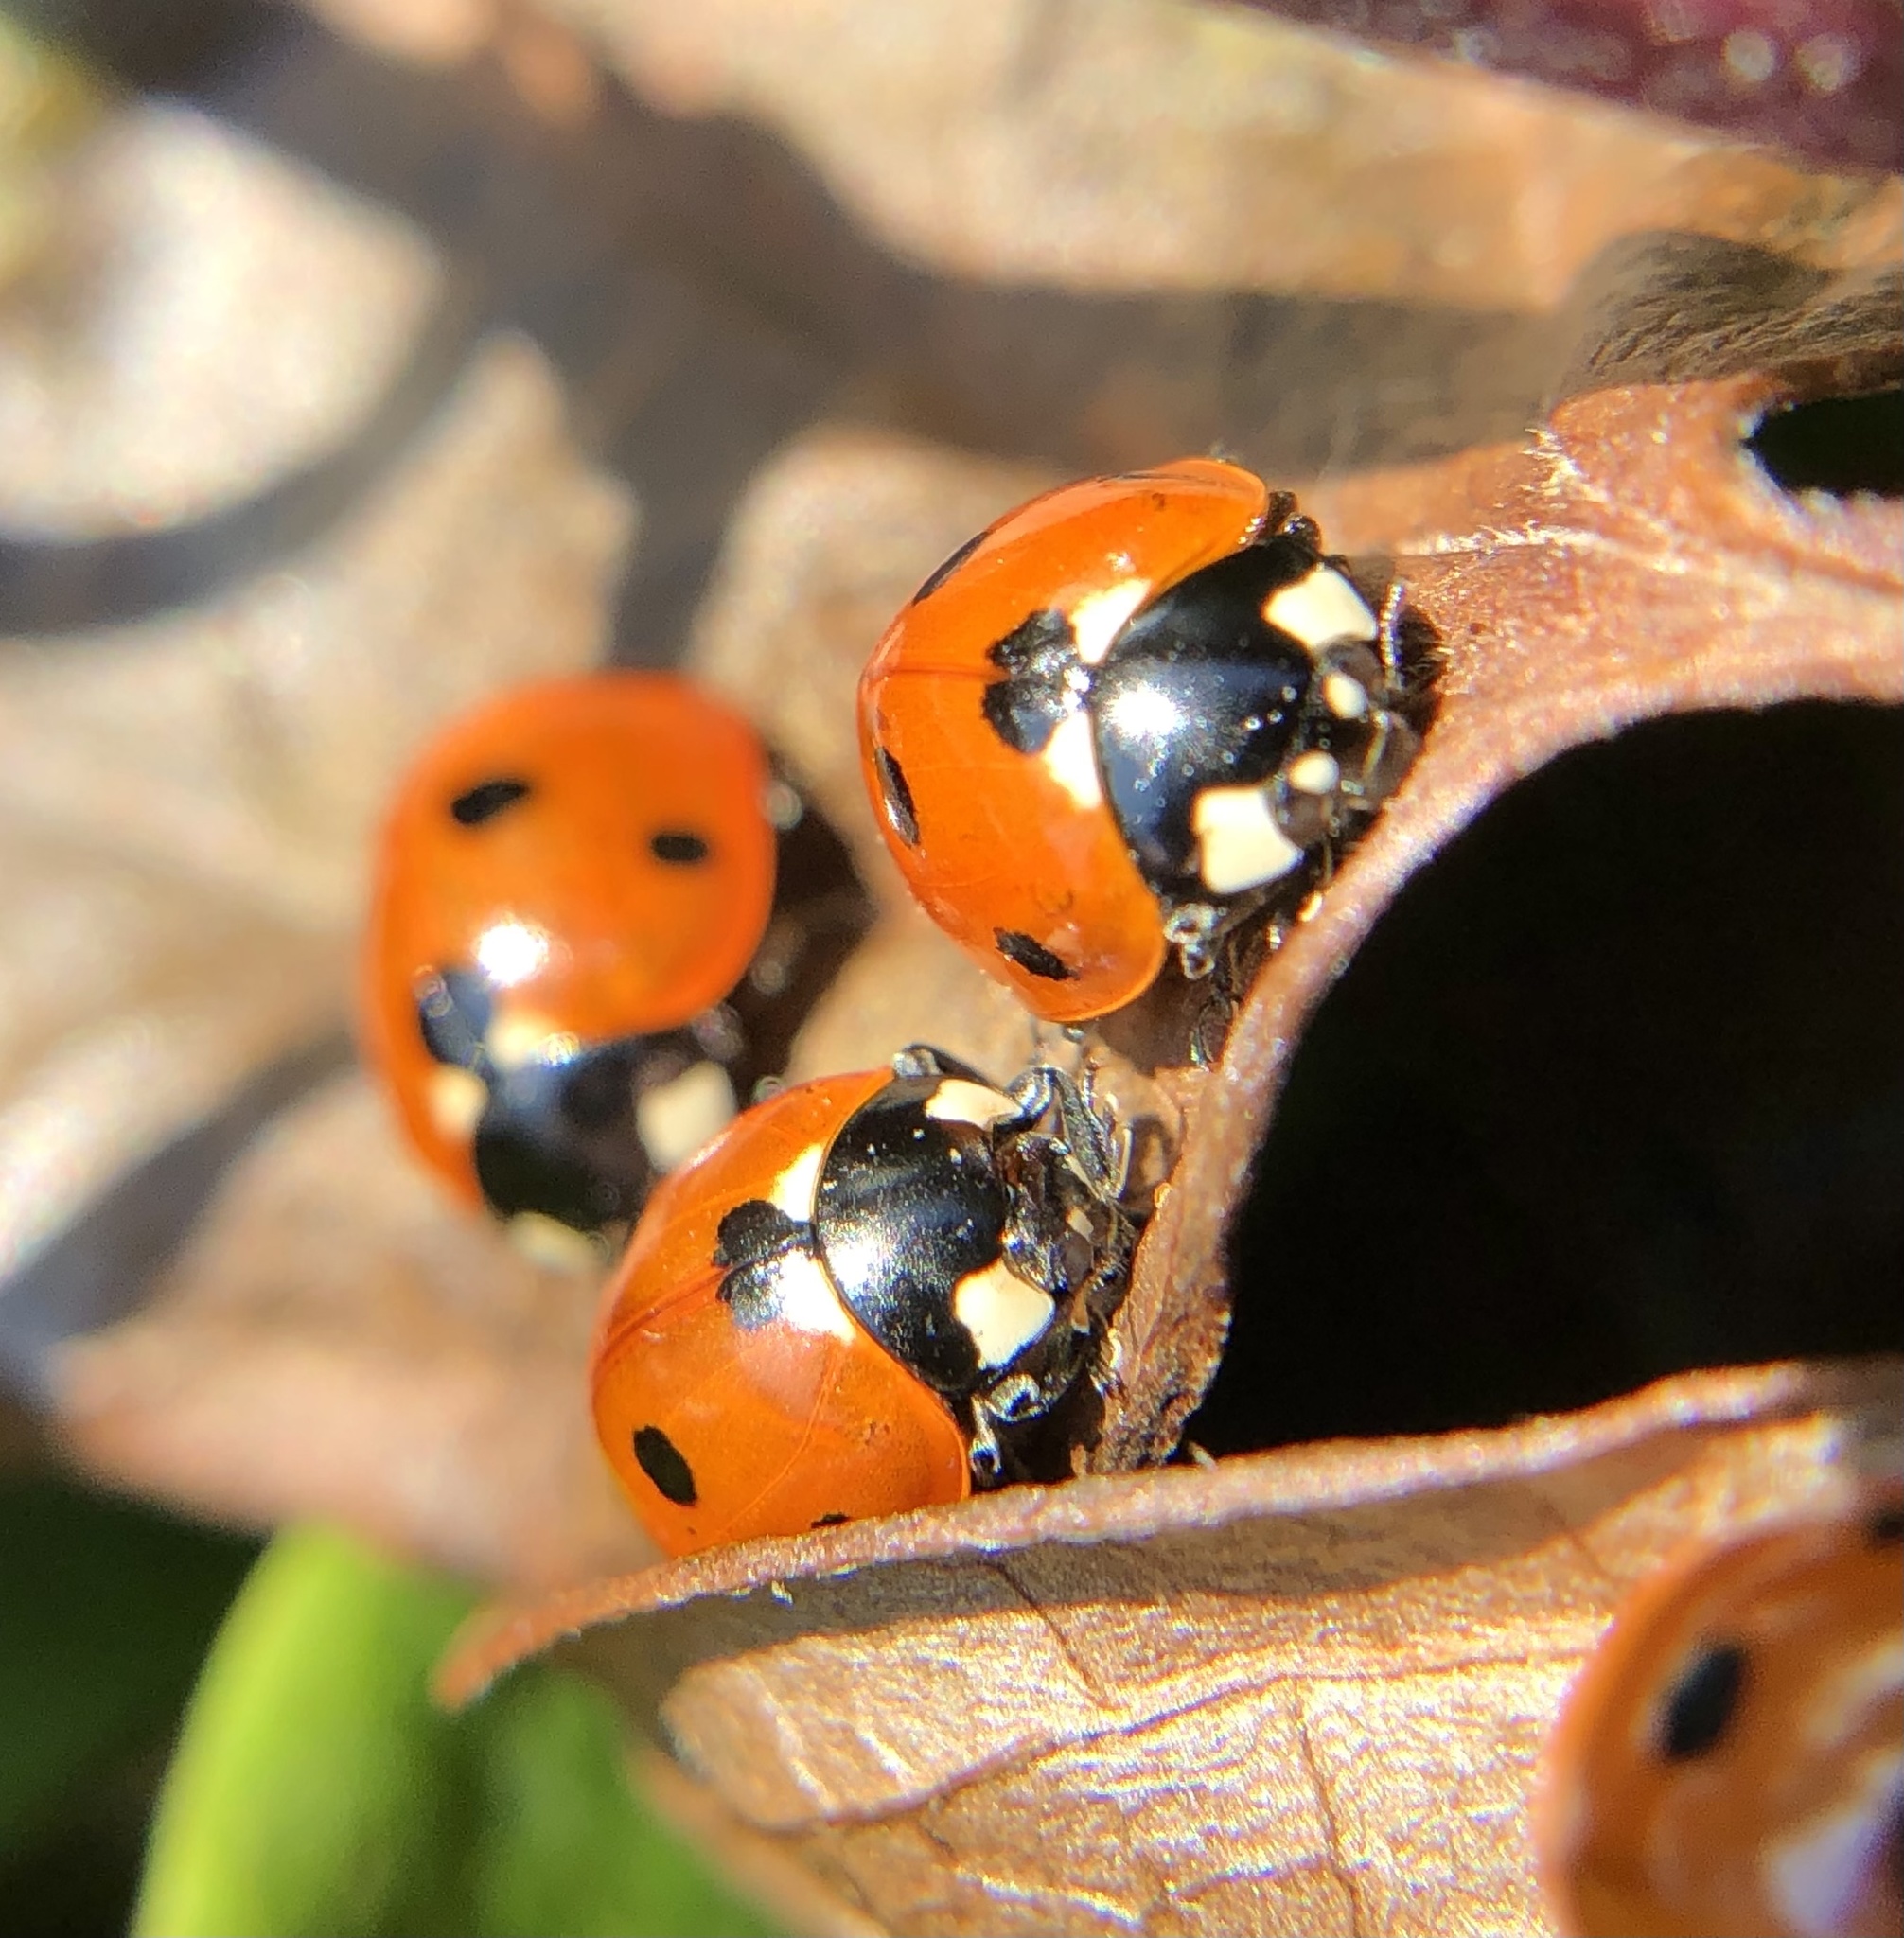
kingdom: Animalia
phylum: Arthropoda
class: Insecta
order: Coleoptera
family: Coccinellidae
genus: Coccinella
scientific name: Coccinella septempunctata
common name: Sevenspotted lady beetle
